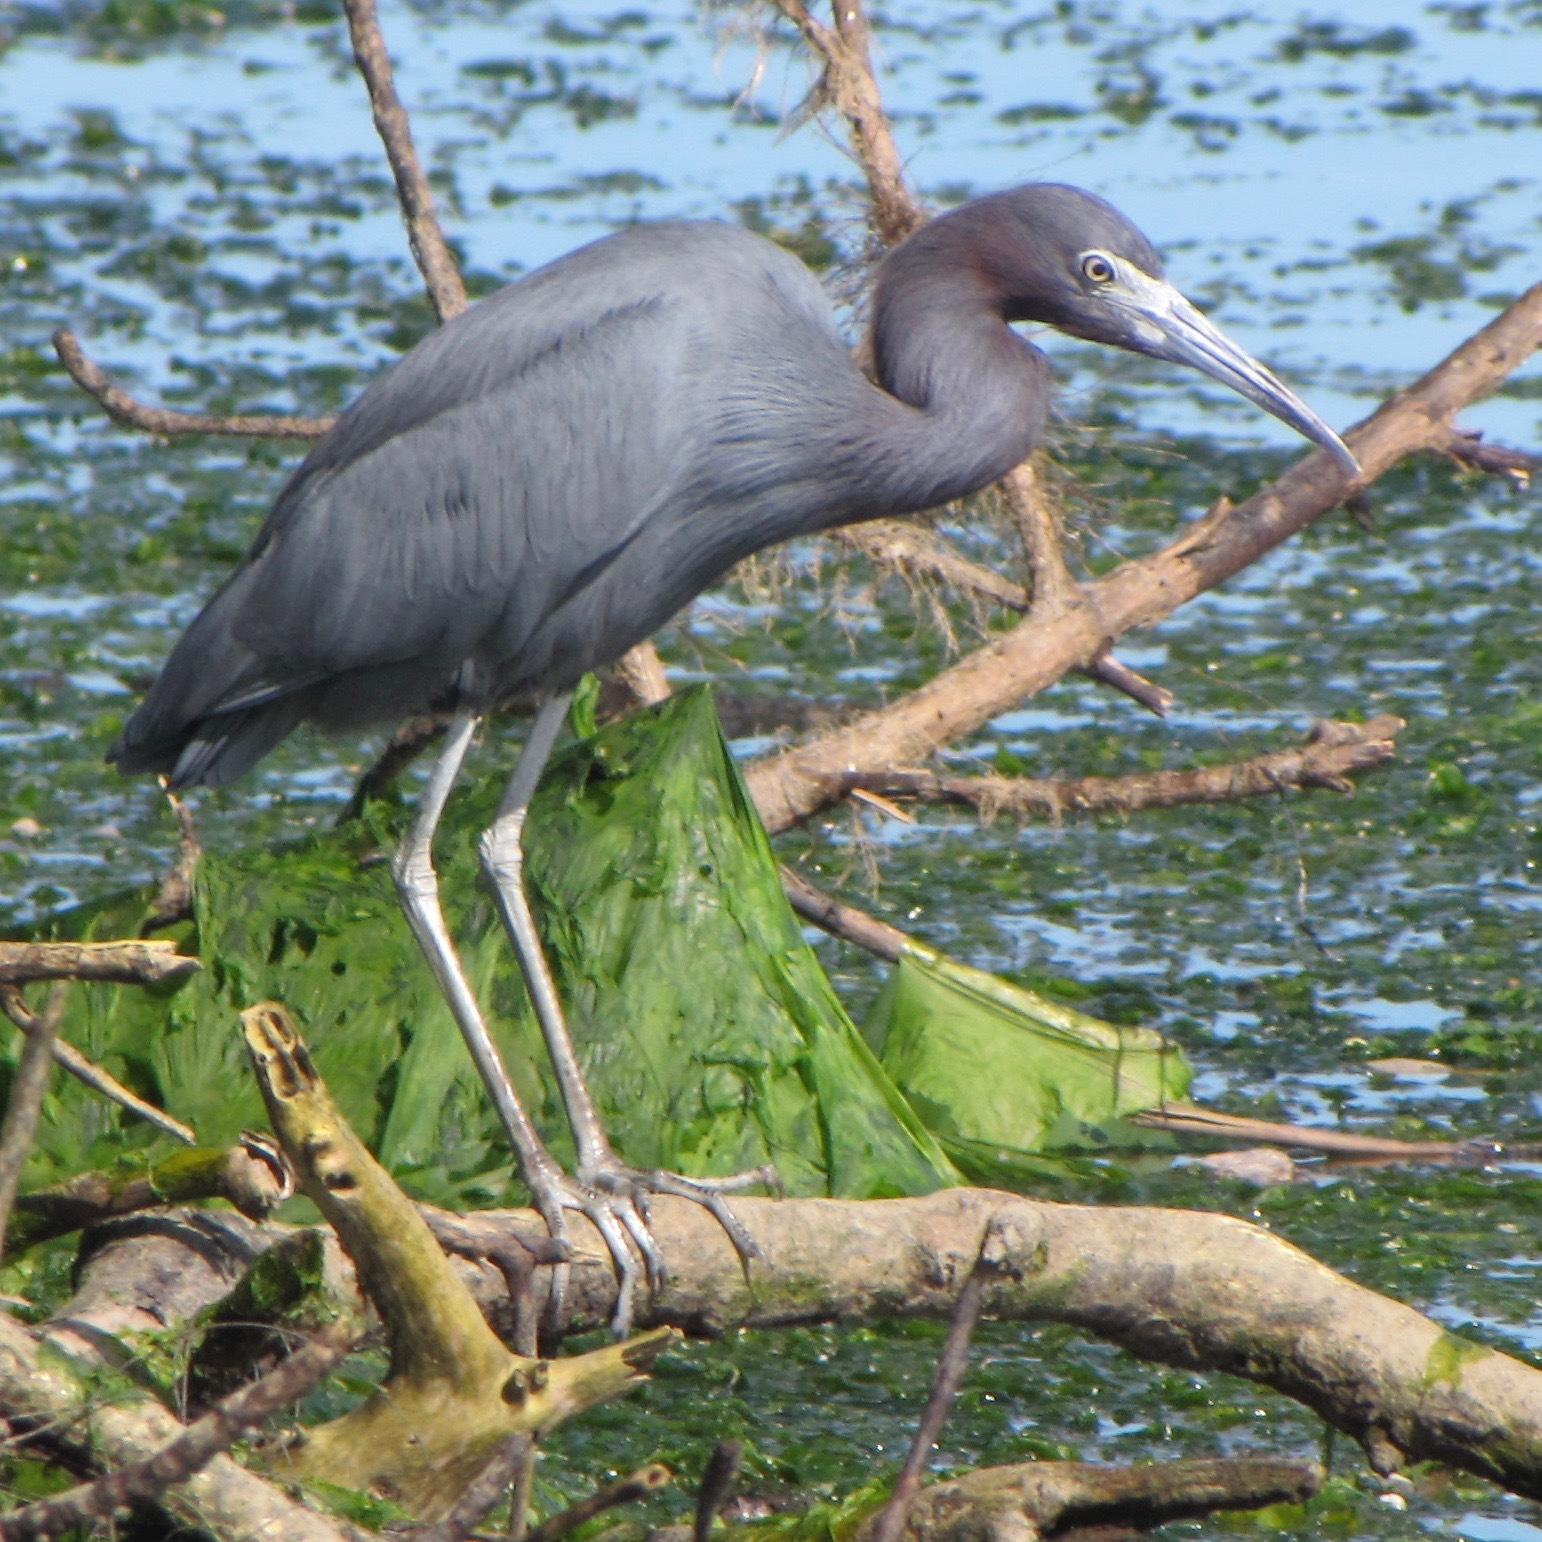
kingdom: Animalia
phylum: Chordata
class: Aves
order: Pelecaniformes
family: Ardeidae
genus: Egretta
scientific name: Egretta caerulea
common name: Little blue heron
